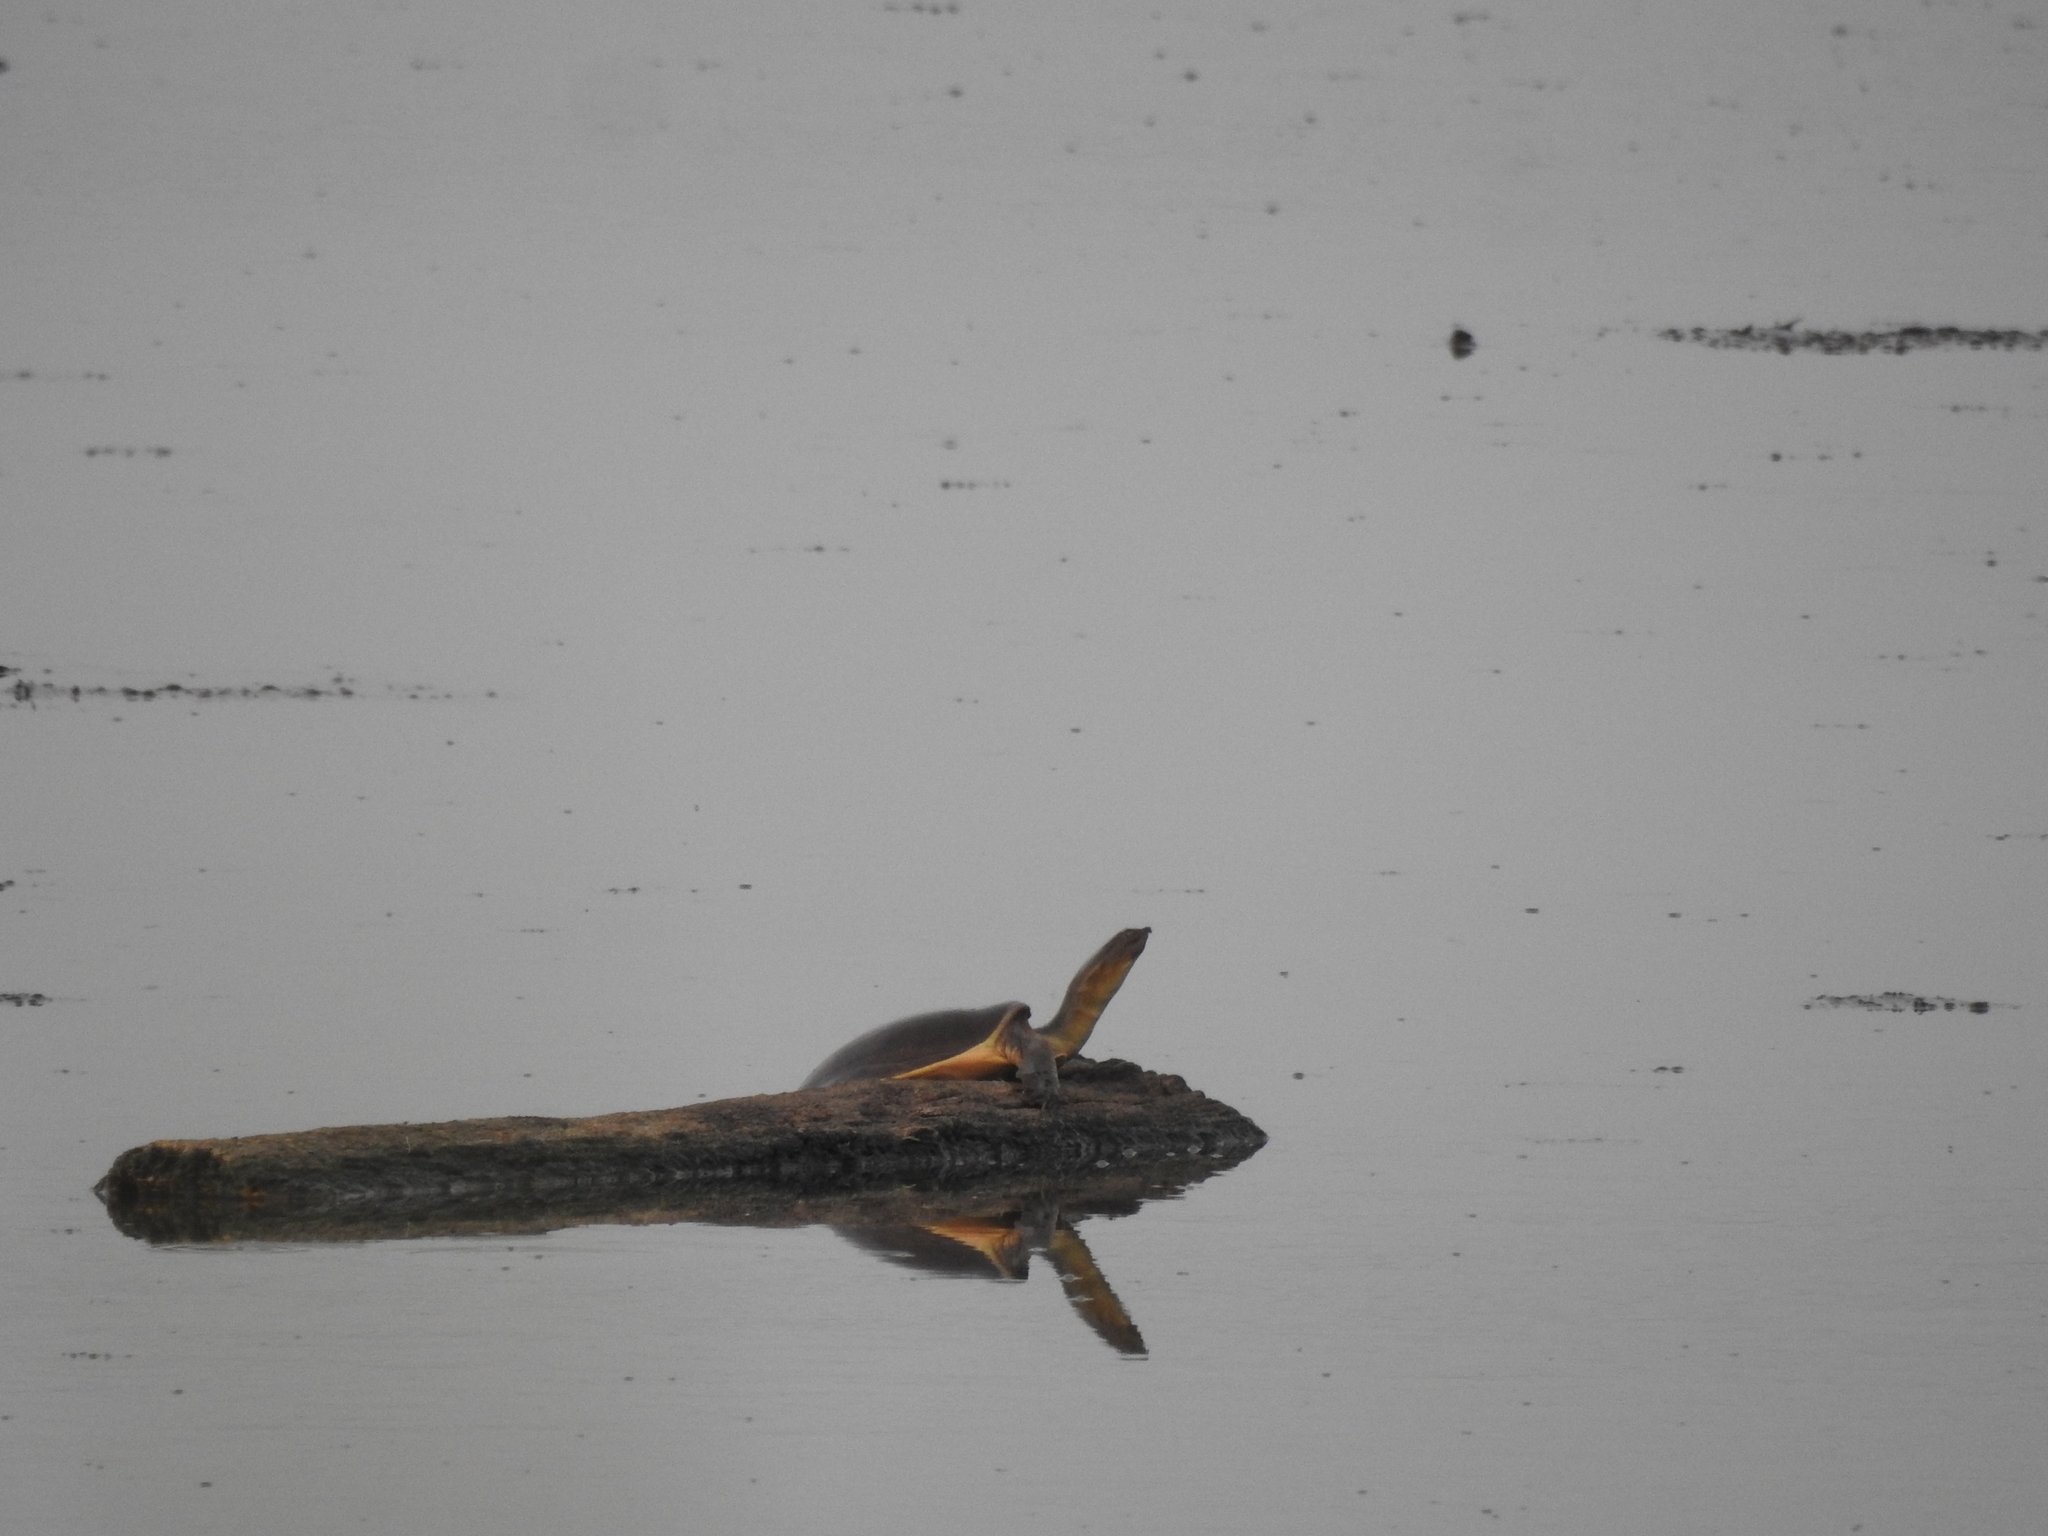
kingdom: Animalia
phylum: Chordata
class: Testudines
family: Trionychidae
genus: Lissemys
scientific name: Lissemys punctata
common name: Indian flap-shelled turtle
